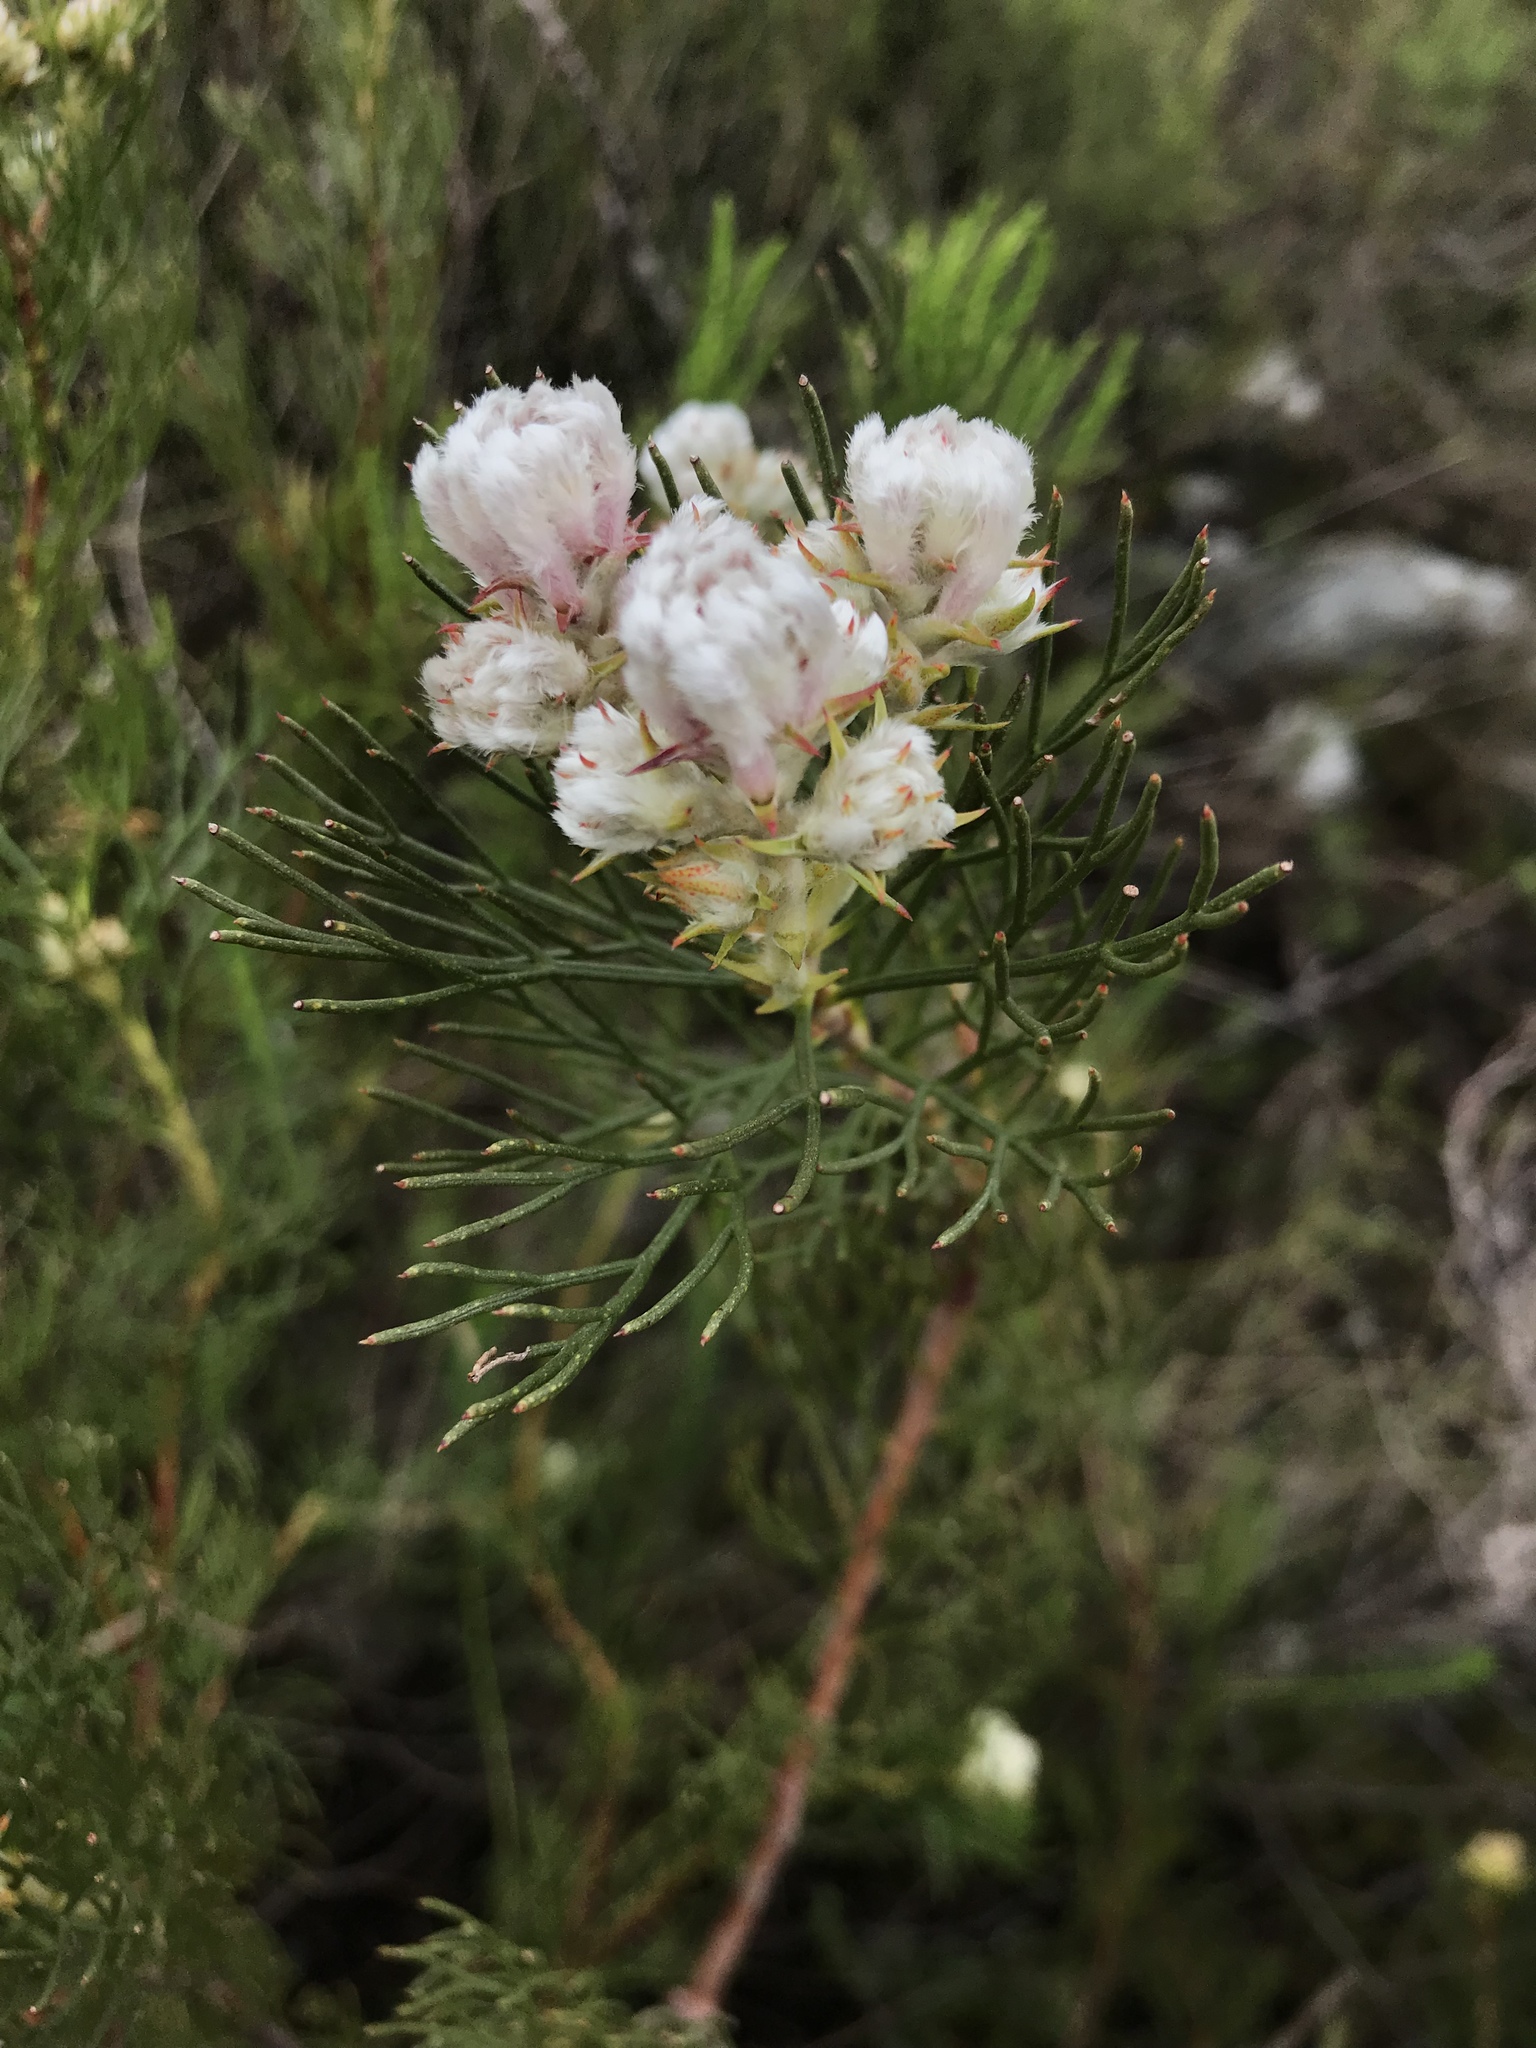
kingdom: Plantae
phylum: Tracheophyta
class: Magnoliopsida
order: Proteales
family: Proteaceae
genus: Serruria
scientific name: Serruria ascendens
